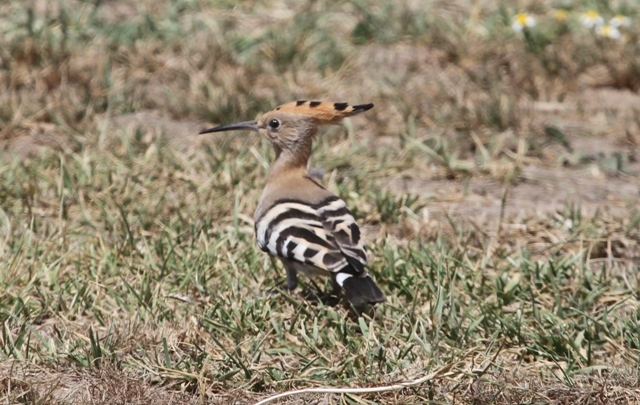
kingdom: Animalia
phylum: Chordata
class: Aves
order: Bucerotiformes
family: Upupidae
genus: Upupa
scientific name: Upupa epops
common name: Eurasian hoopoe
